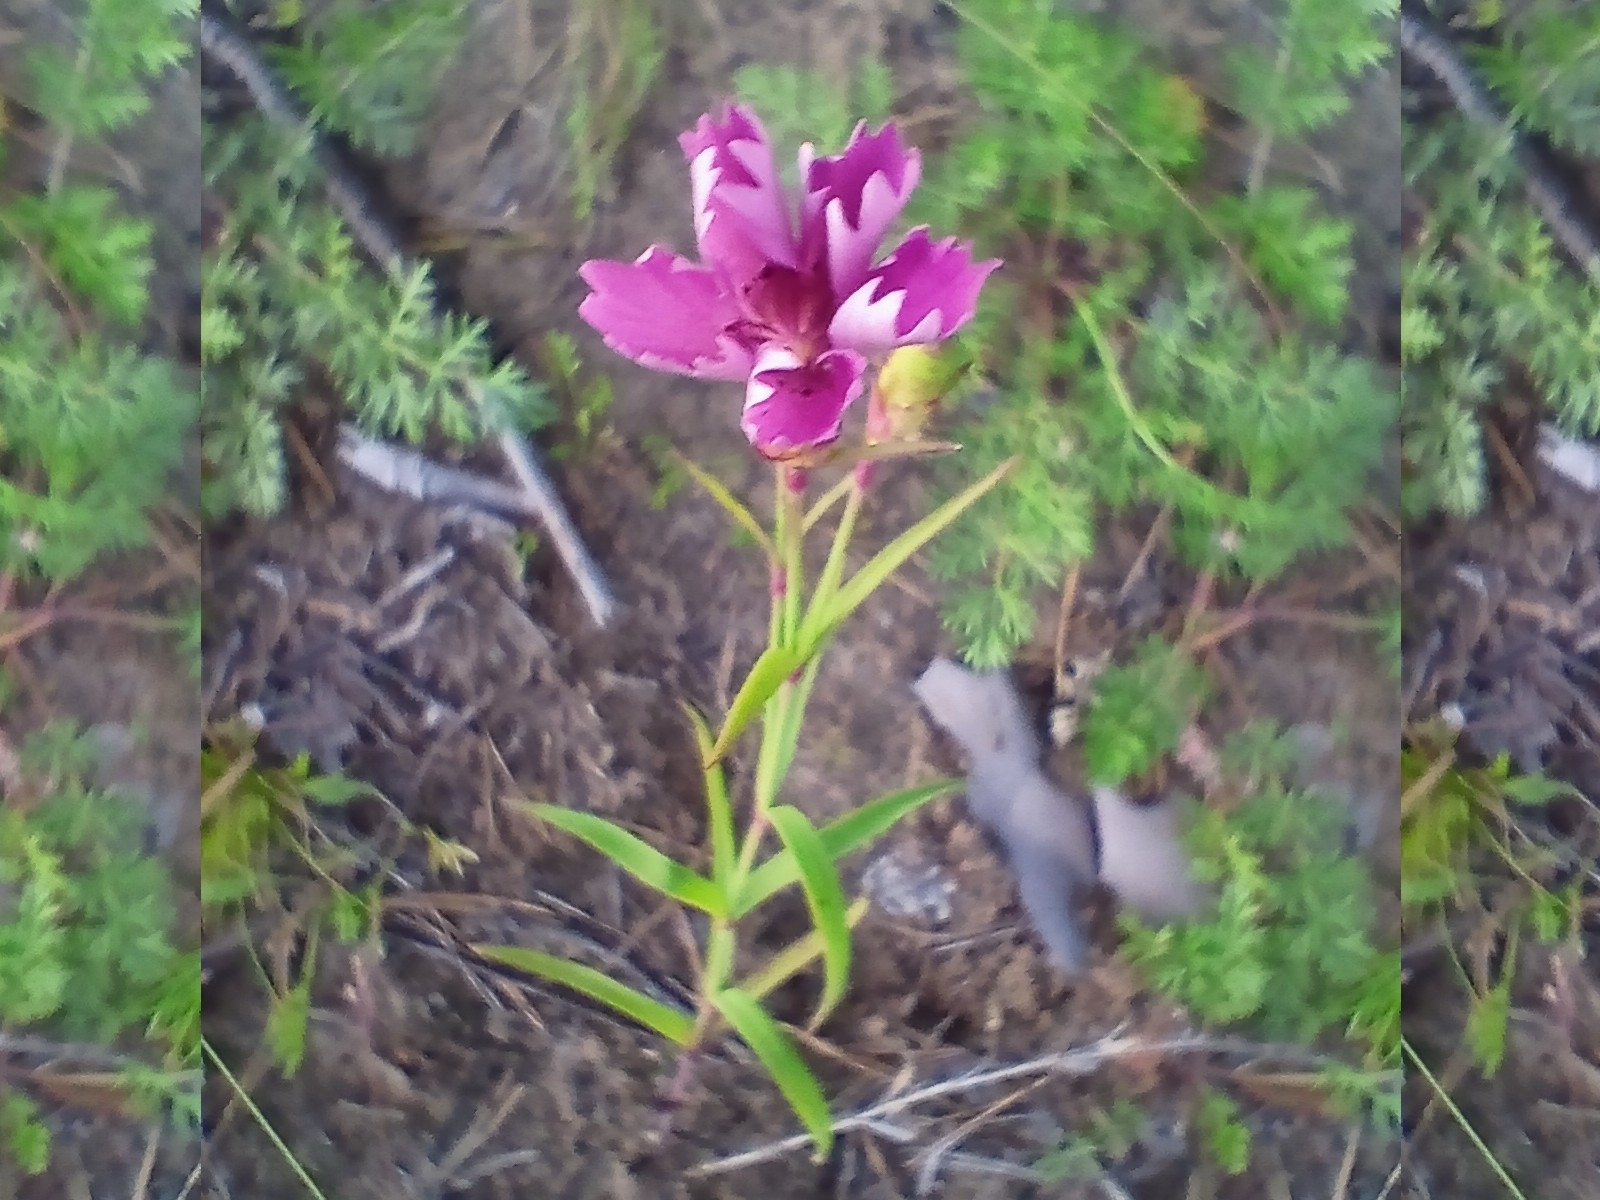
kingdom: Plantae
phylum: Tracheophyta
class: Magnoliopsida
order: Caryophyllales
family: Caryophyllaceae
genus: Dianthus
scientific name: Dianthus chinensis
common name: Rainbow pink
